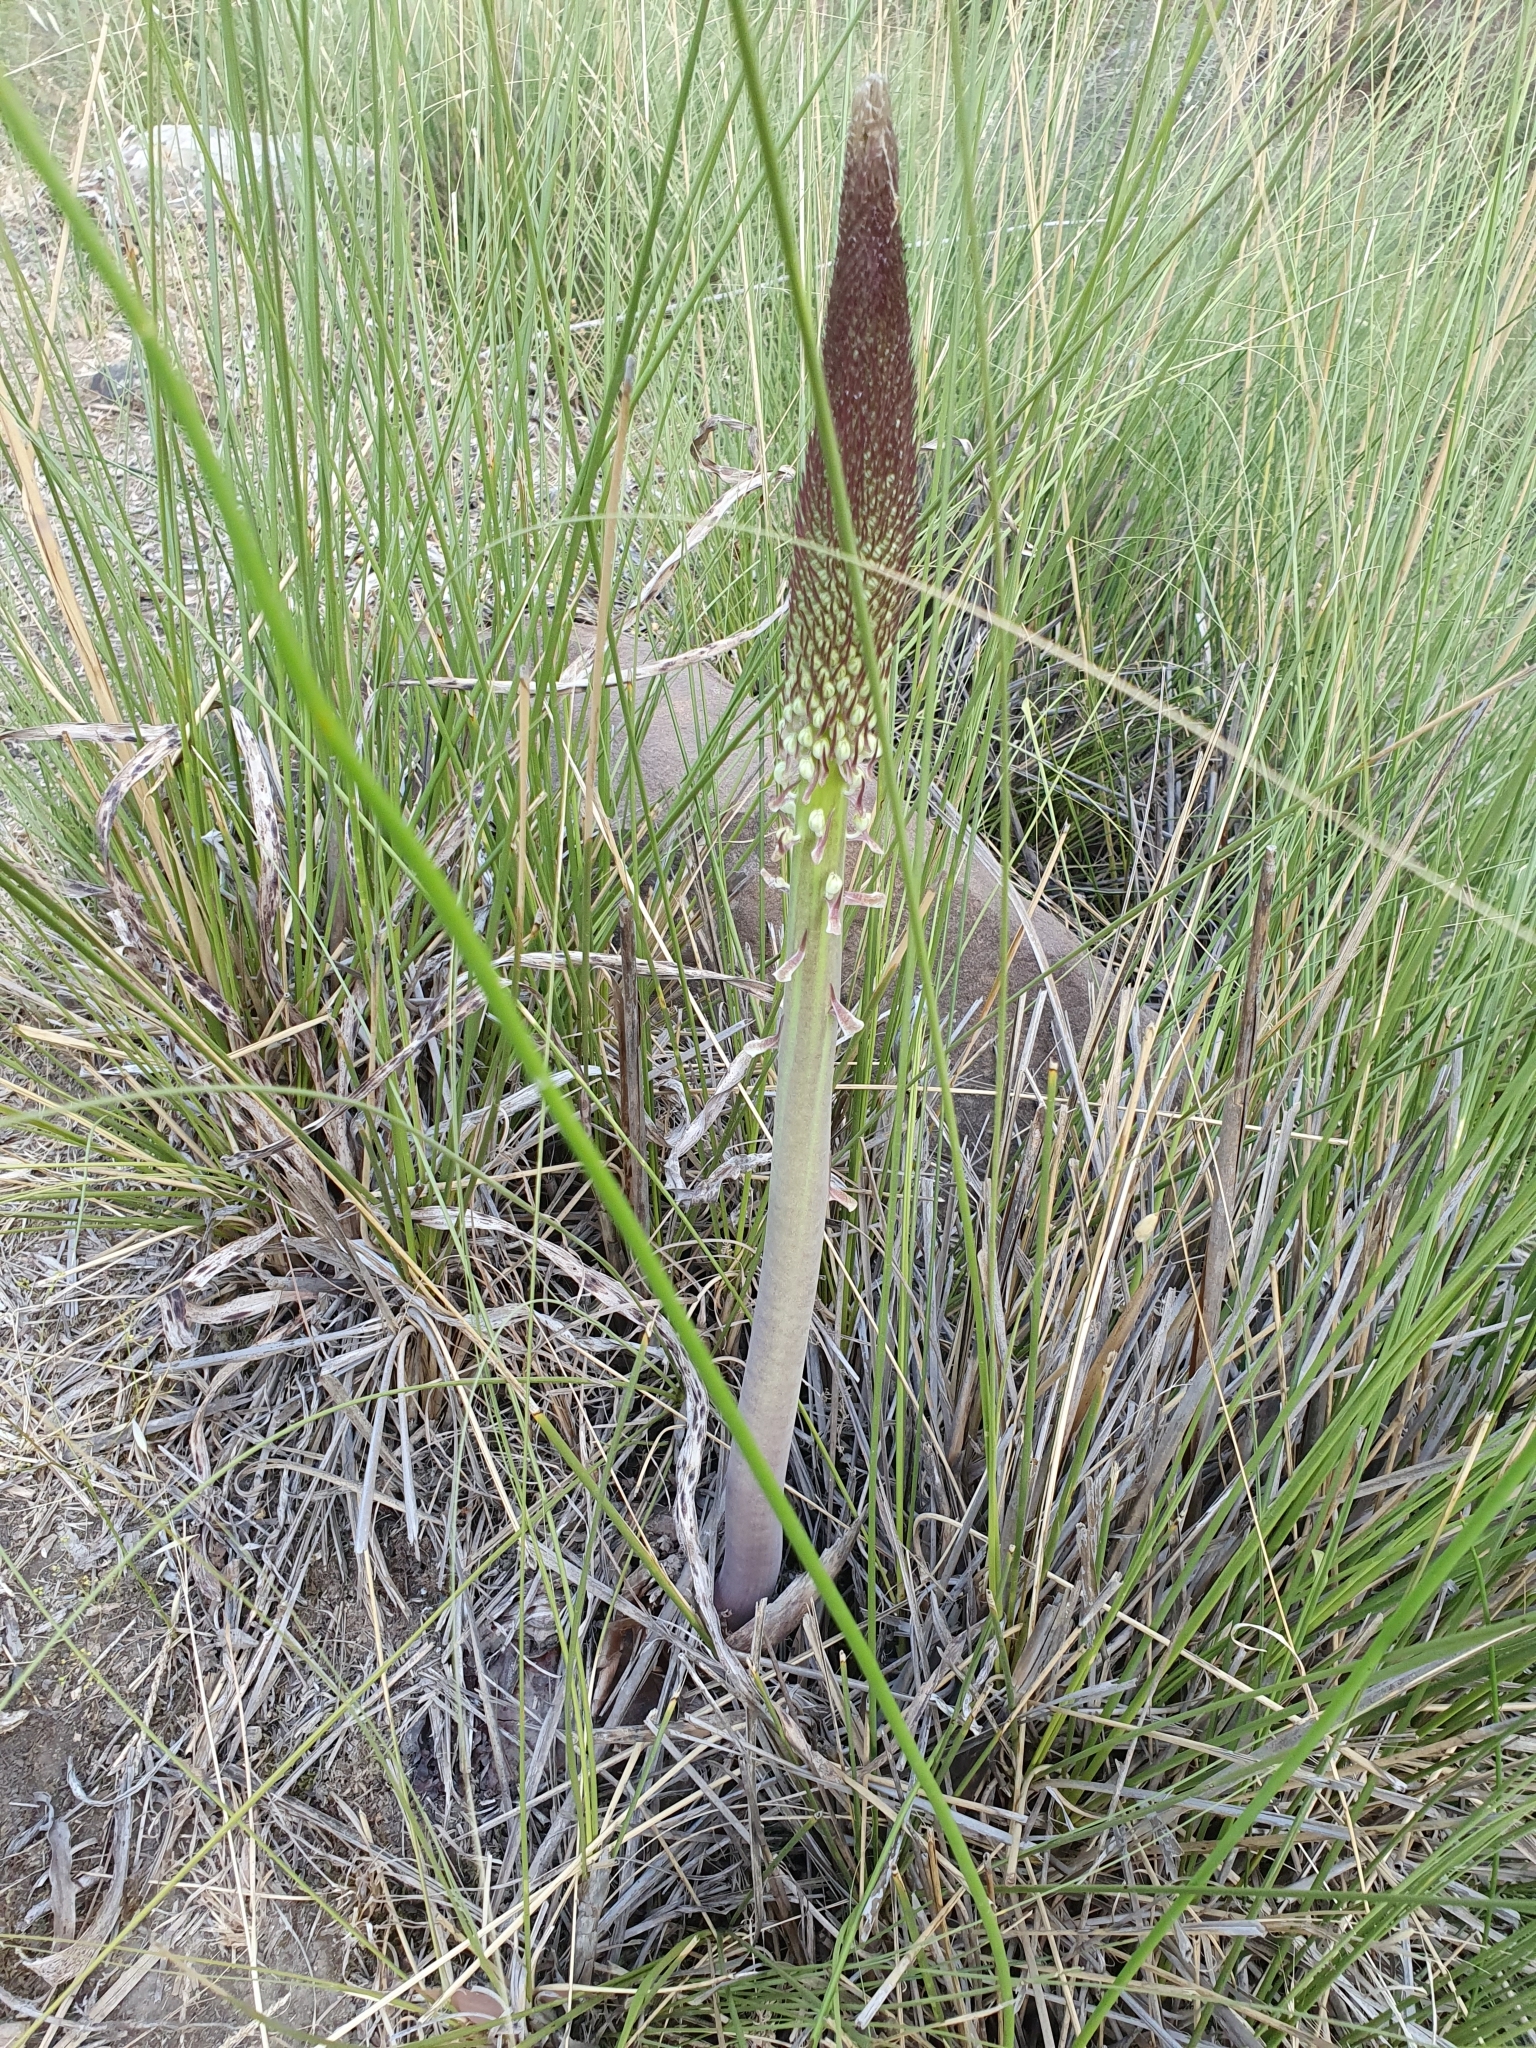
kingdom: Plantae
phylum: Tracheophyta
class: Liliopsida
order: Asparagales
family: Asparagaceae
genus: Drimia
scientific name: Drimia numidica
